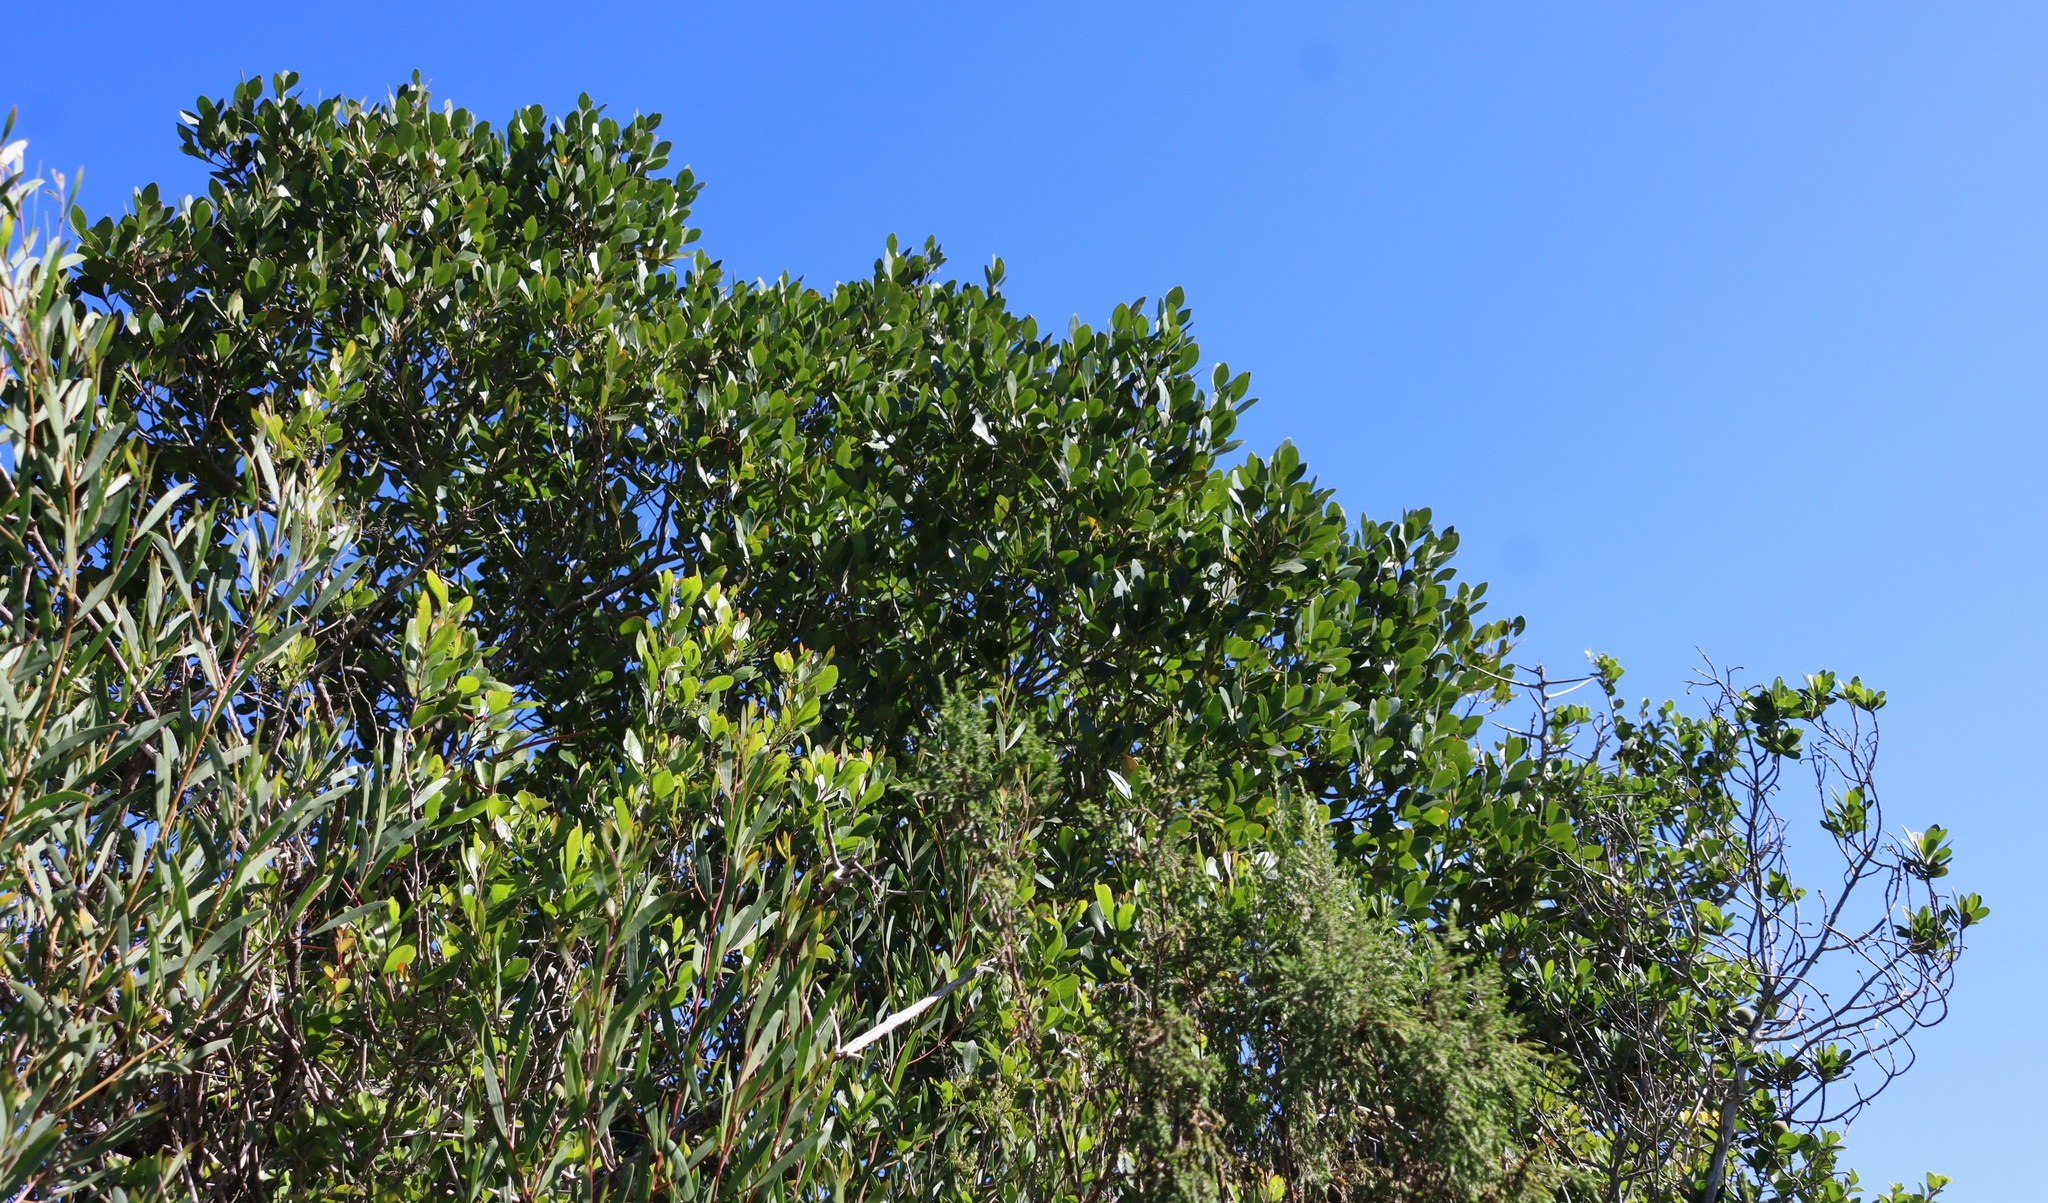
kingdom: Plantae
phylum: Tracheophyta
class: Magnoliopsida
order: Celastrales
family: Celastraceae
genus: Pterocelastrus
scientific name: Pterocelastrus tricuspidatus
